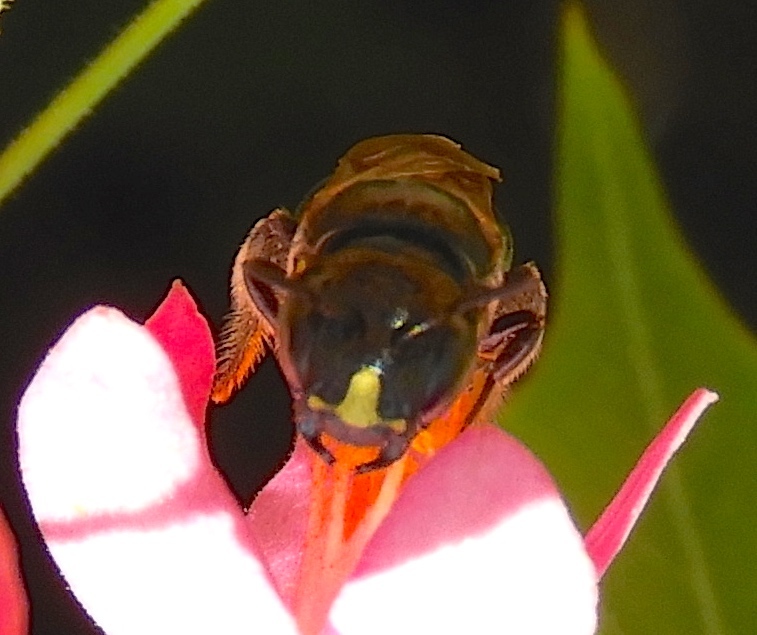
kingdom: Animalia
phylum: Arthropoda
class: Insecta
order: Hymenoptera
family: Apidae
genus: Ceratina
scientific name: Ceratina
